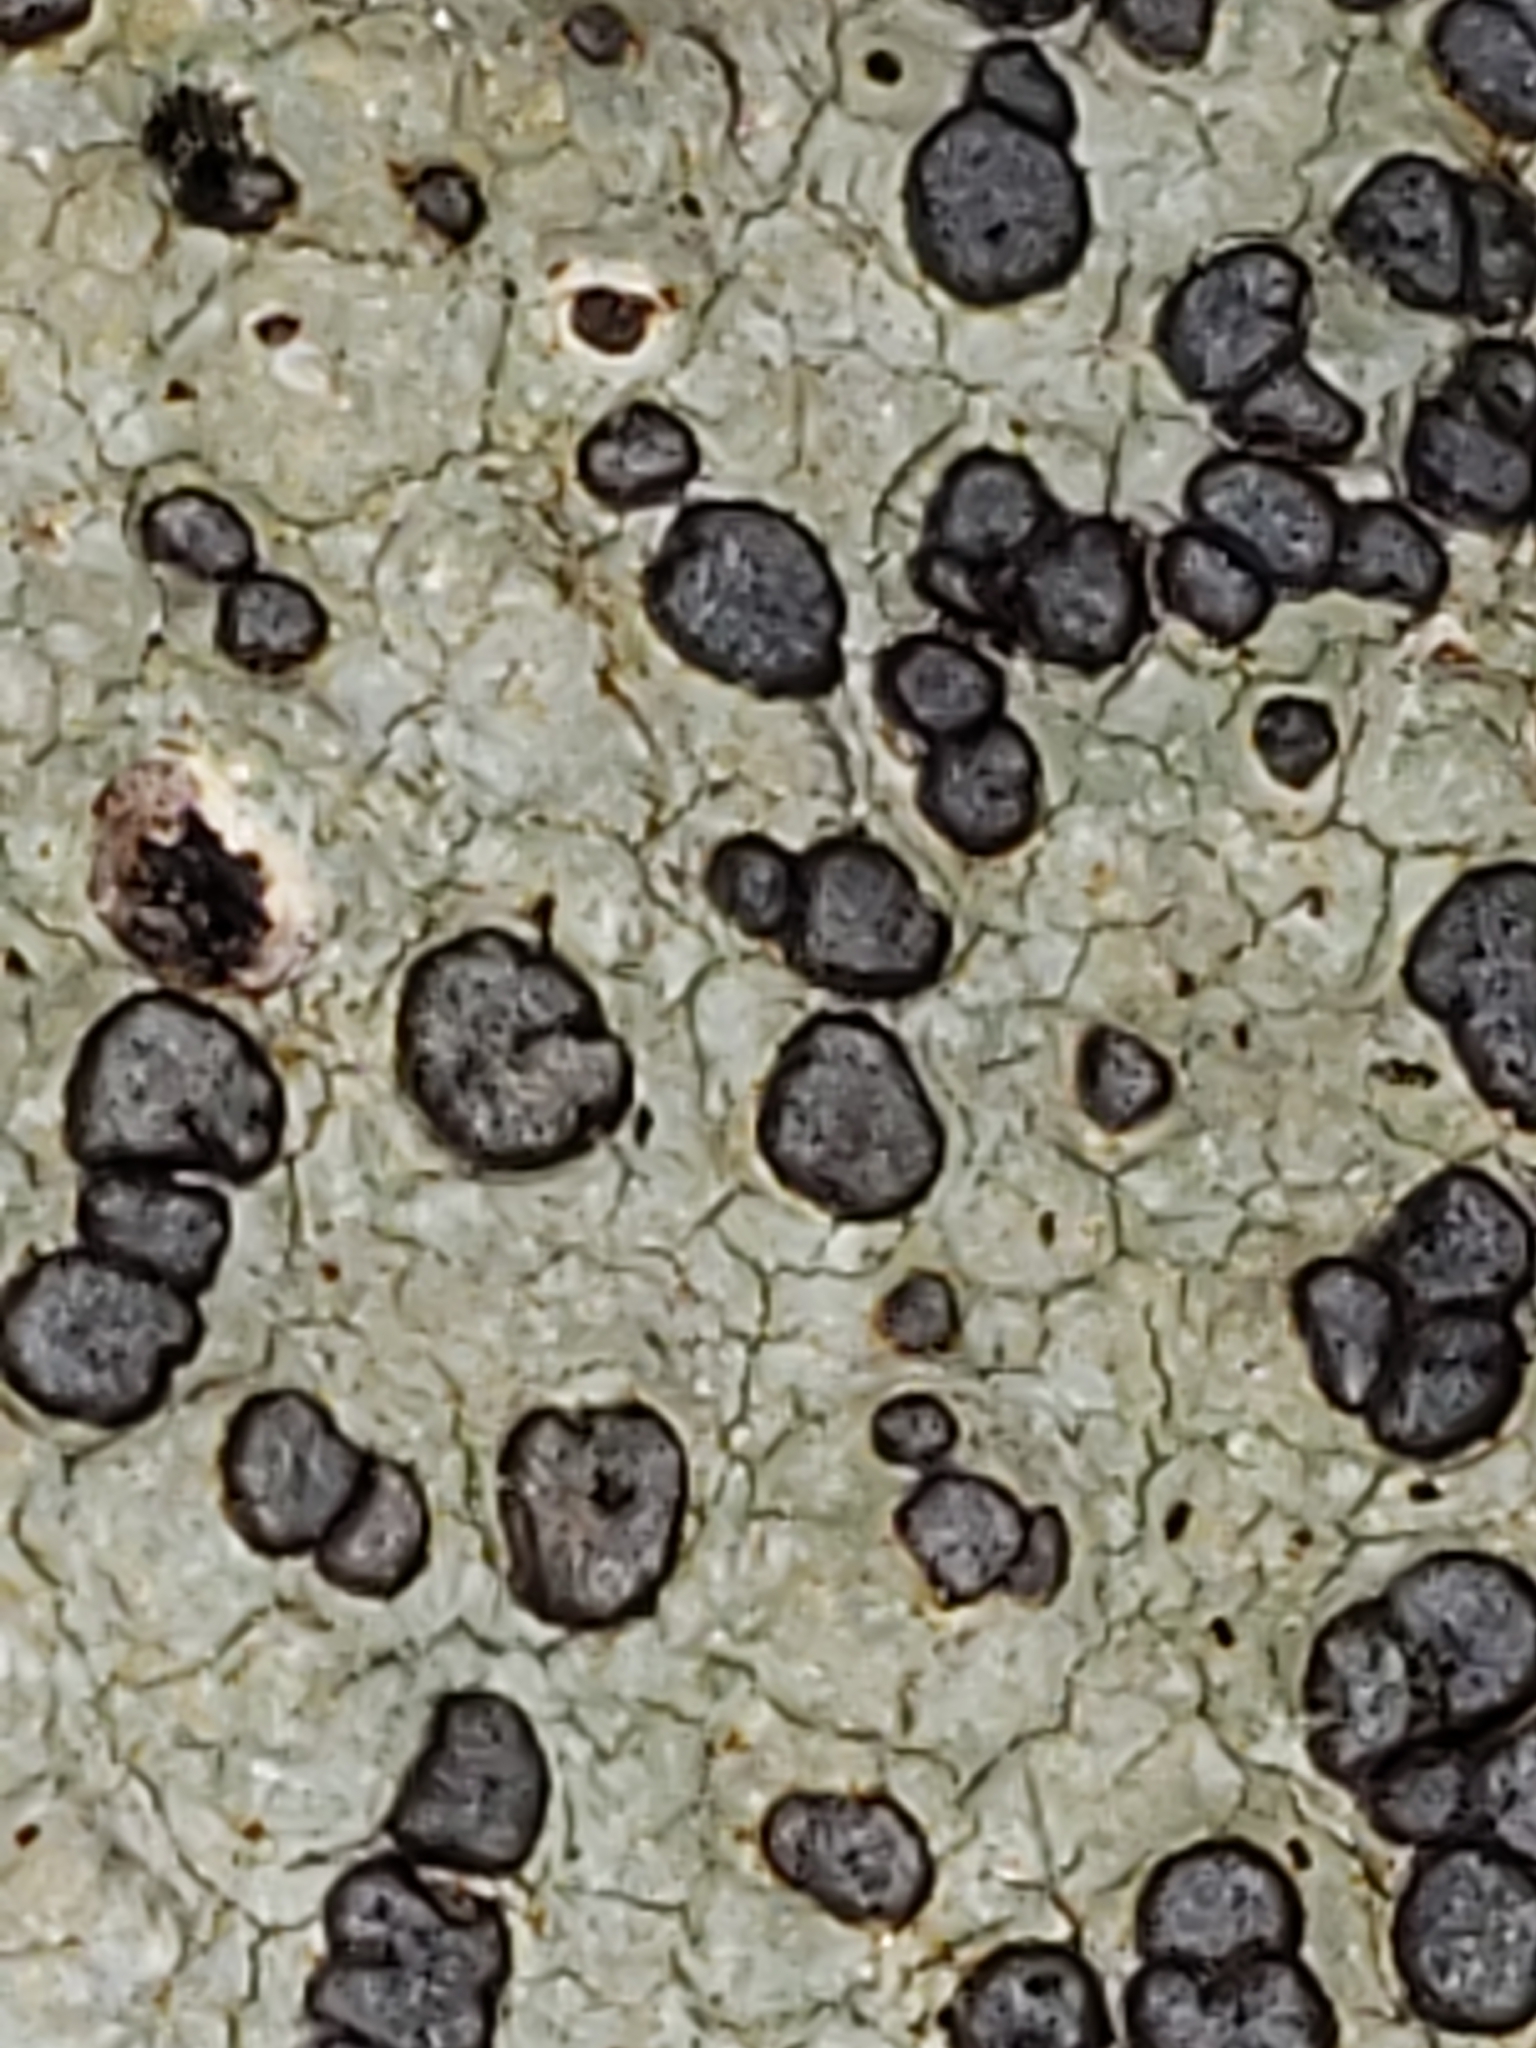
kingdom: Fungi
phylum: Ascomycota
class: Lecanoromycetes
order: Lecideales
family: Lecideaceae
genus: Porpidia
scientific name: Porpidia albocaerulescens
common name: Smokey-eyed boulder lichen
